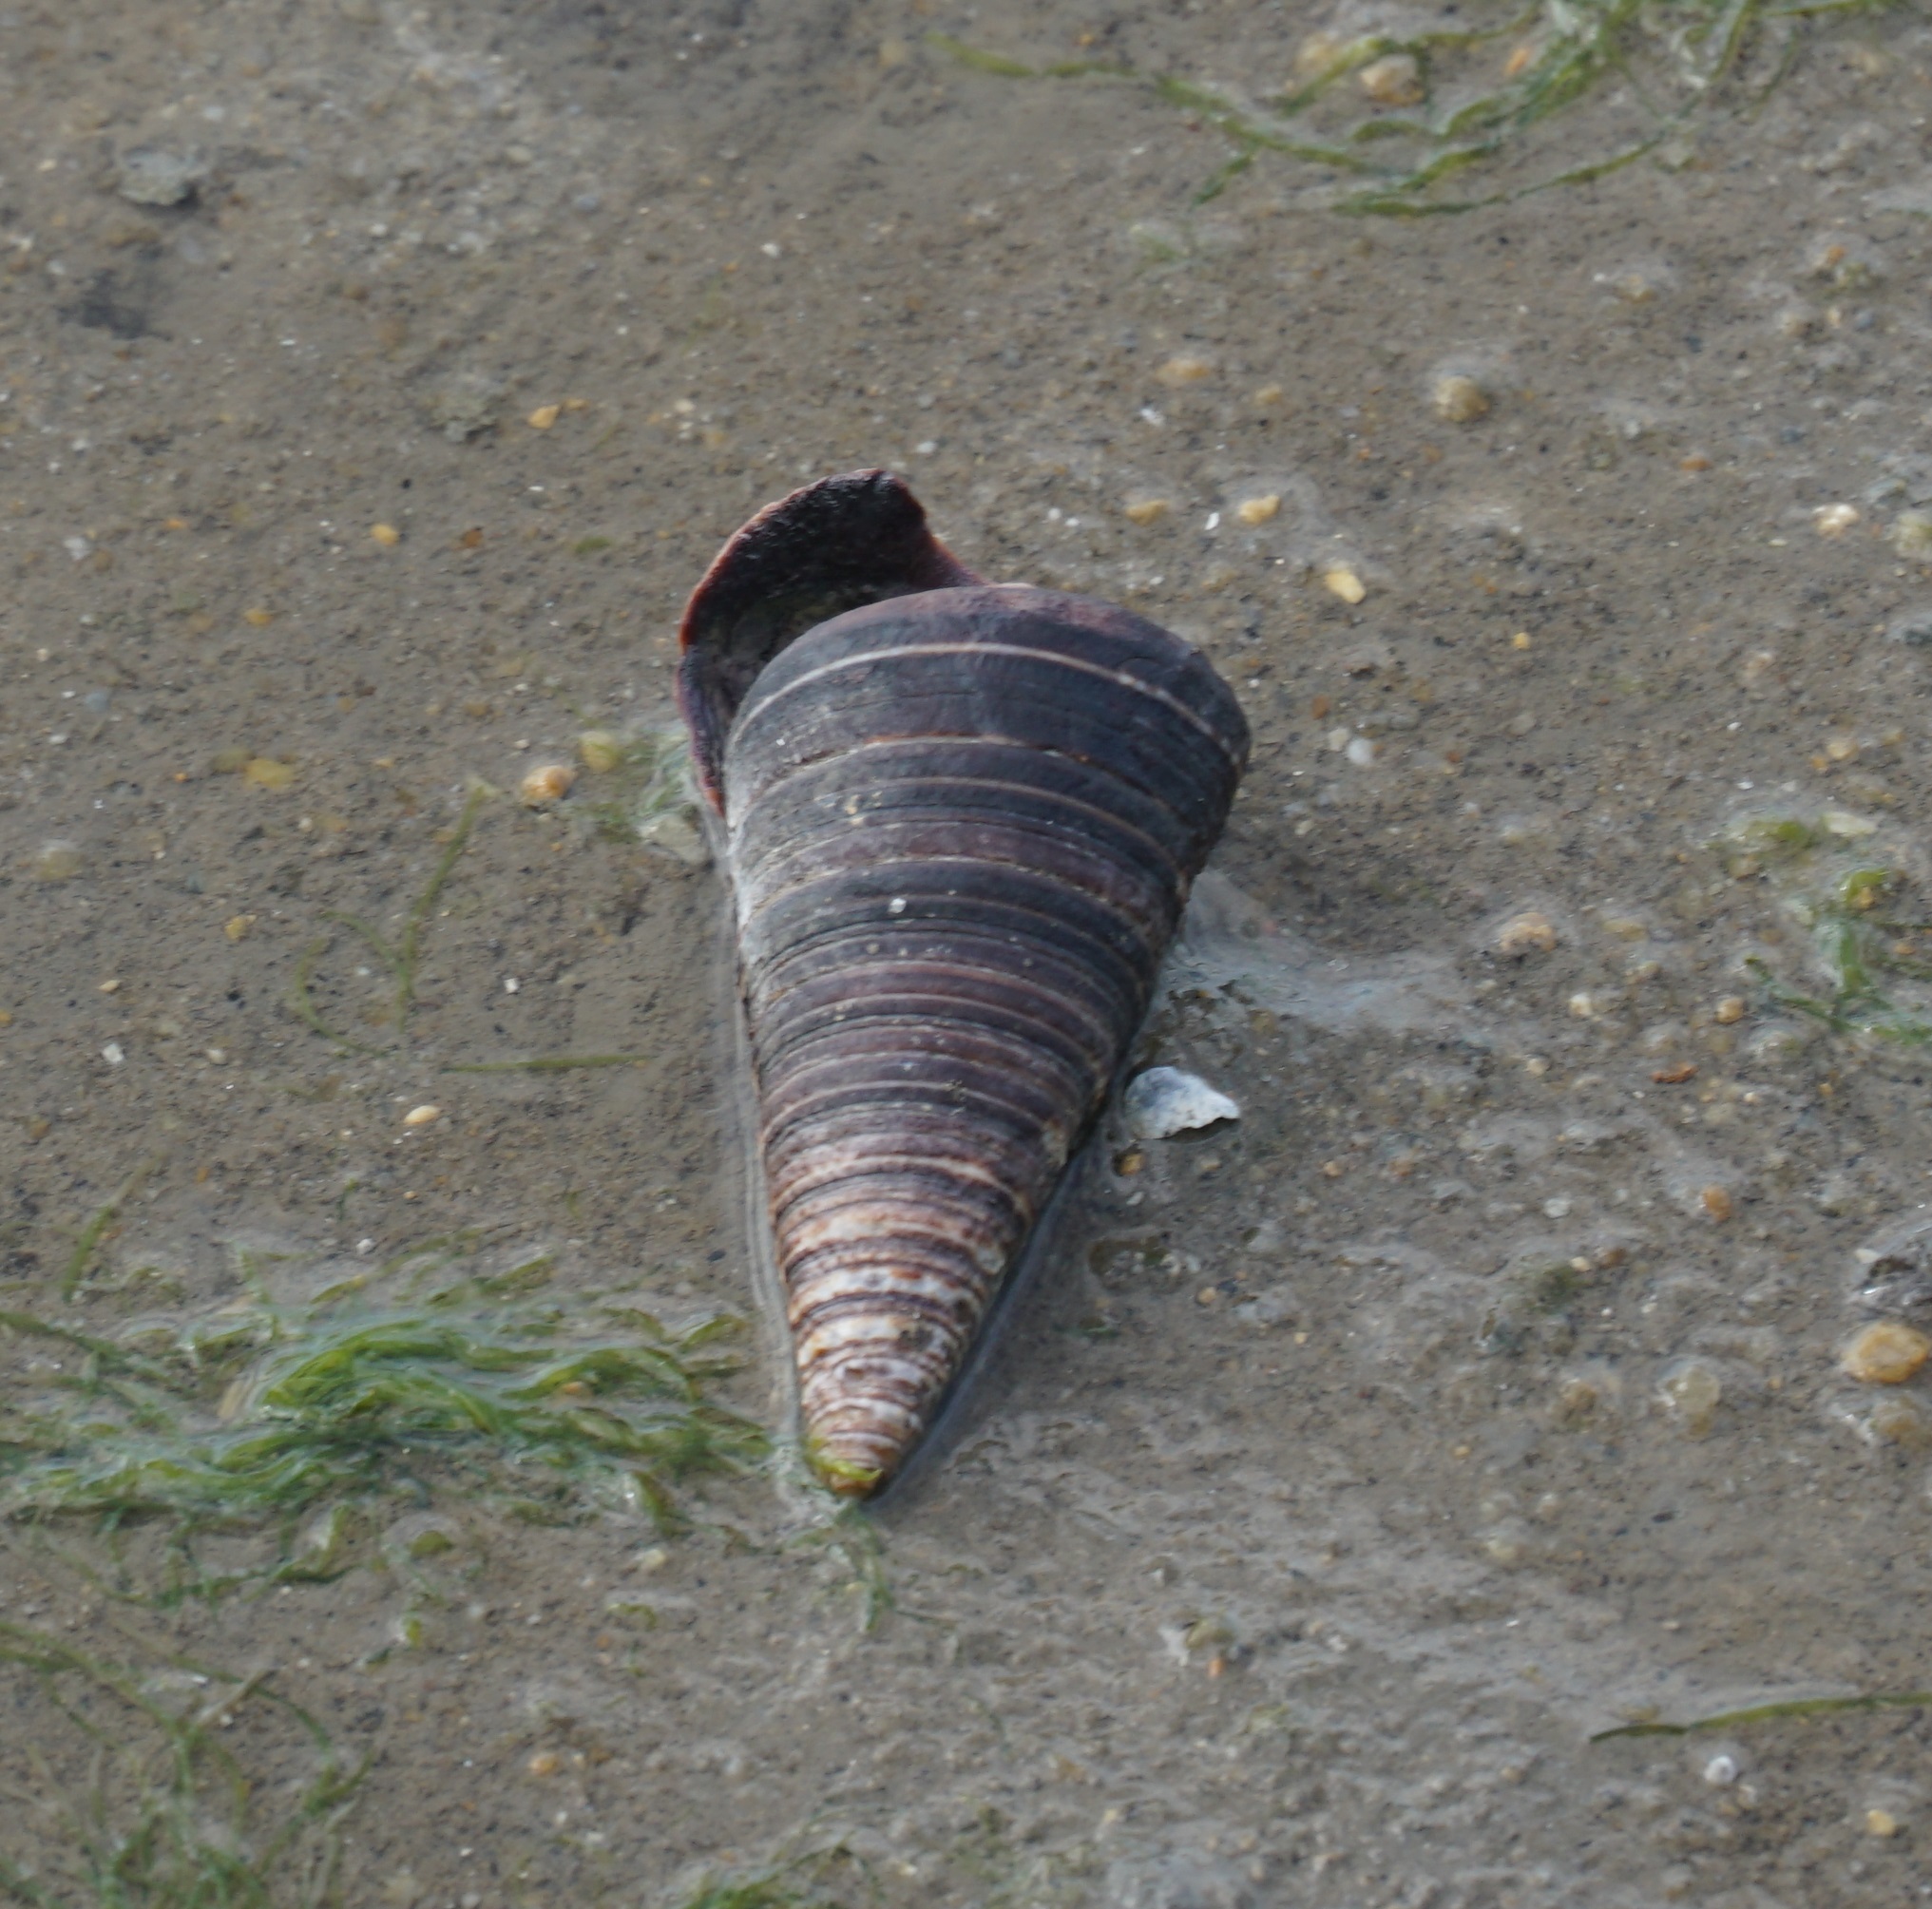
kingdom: Animalia
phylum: Mollusca
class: Gastropoda
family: Potamididae
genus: Telescopium
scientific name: Telescopium telescopium
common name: Telescope creeper
